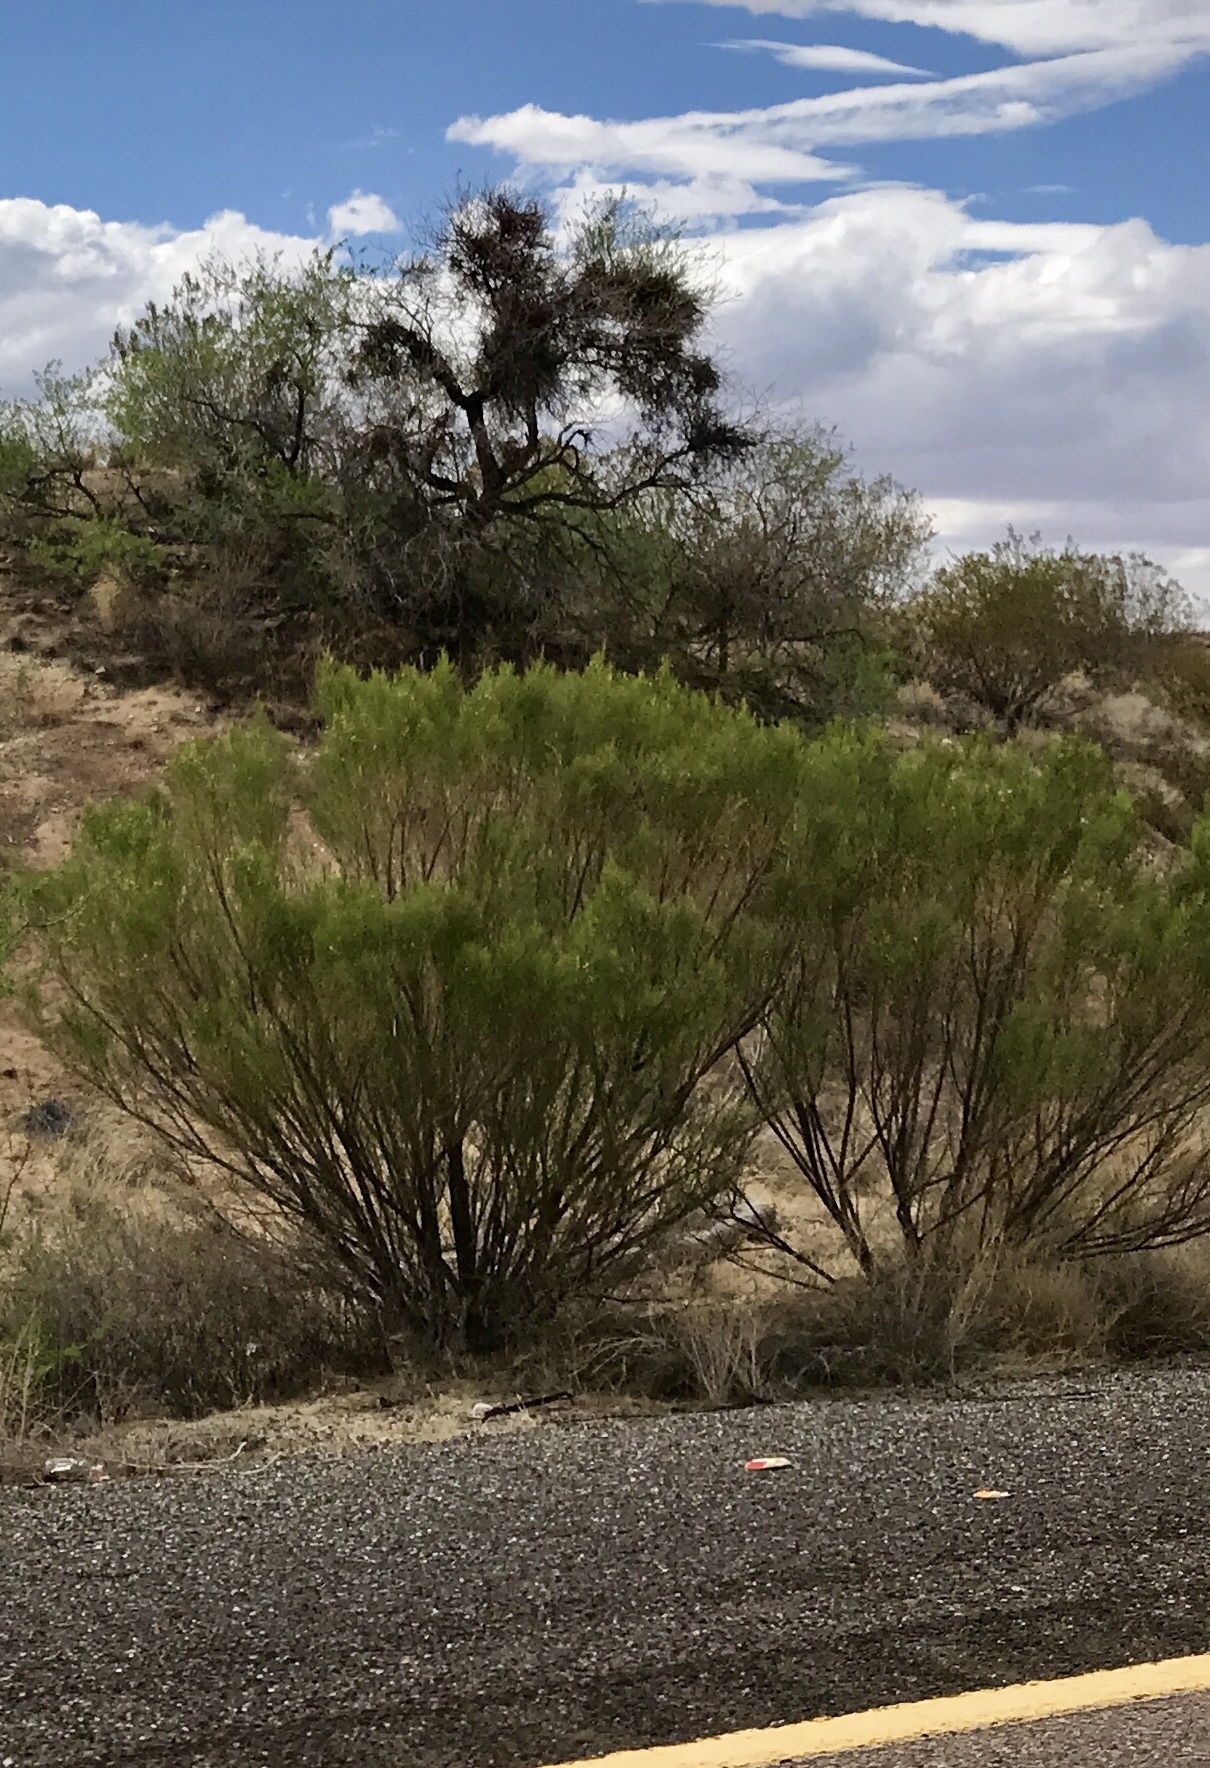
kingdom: Plantae
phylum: Tracheophyta
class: Magnoliopsida
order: Asterales
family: Asteraceae
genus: Baccharis
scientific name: Baccharis sarothroides
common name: Desert-broom
